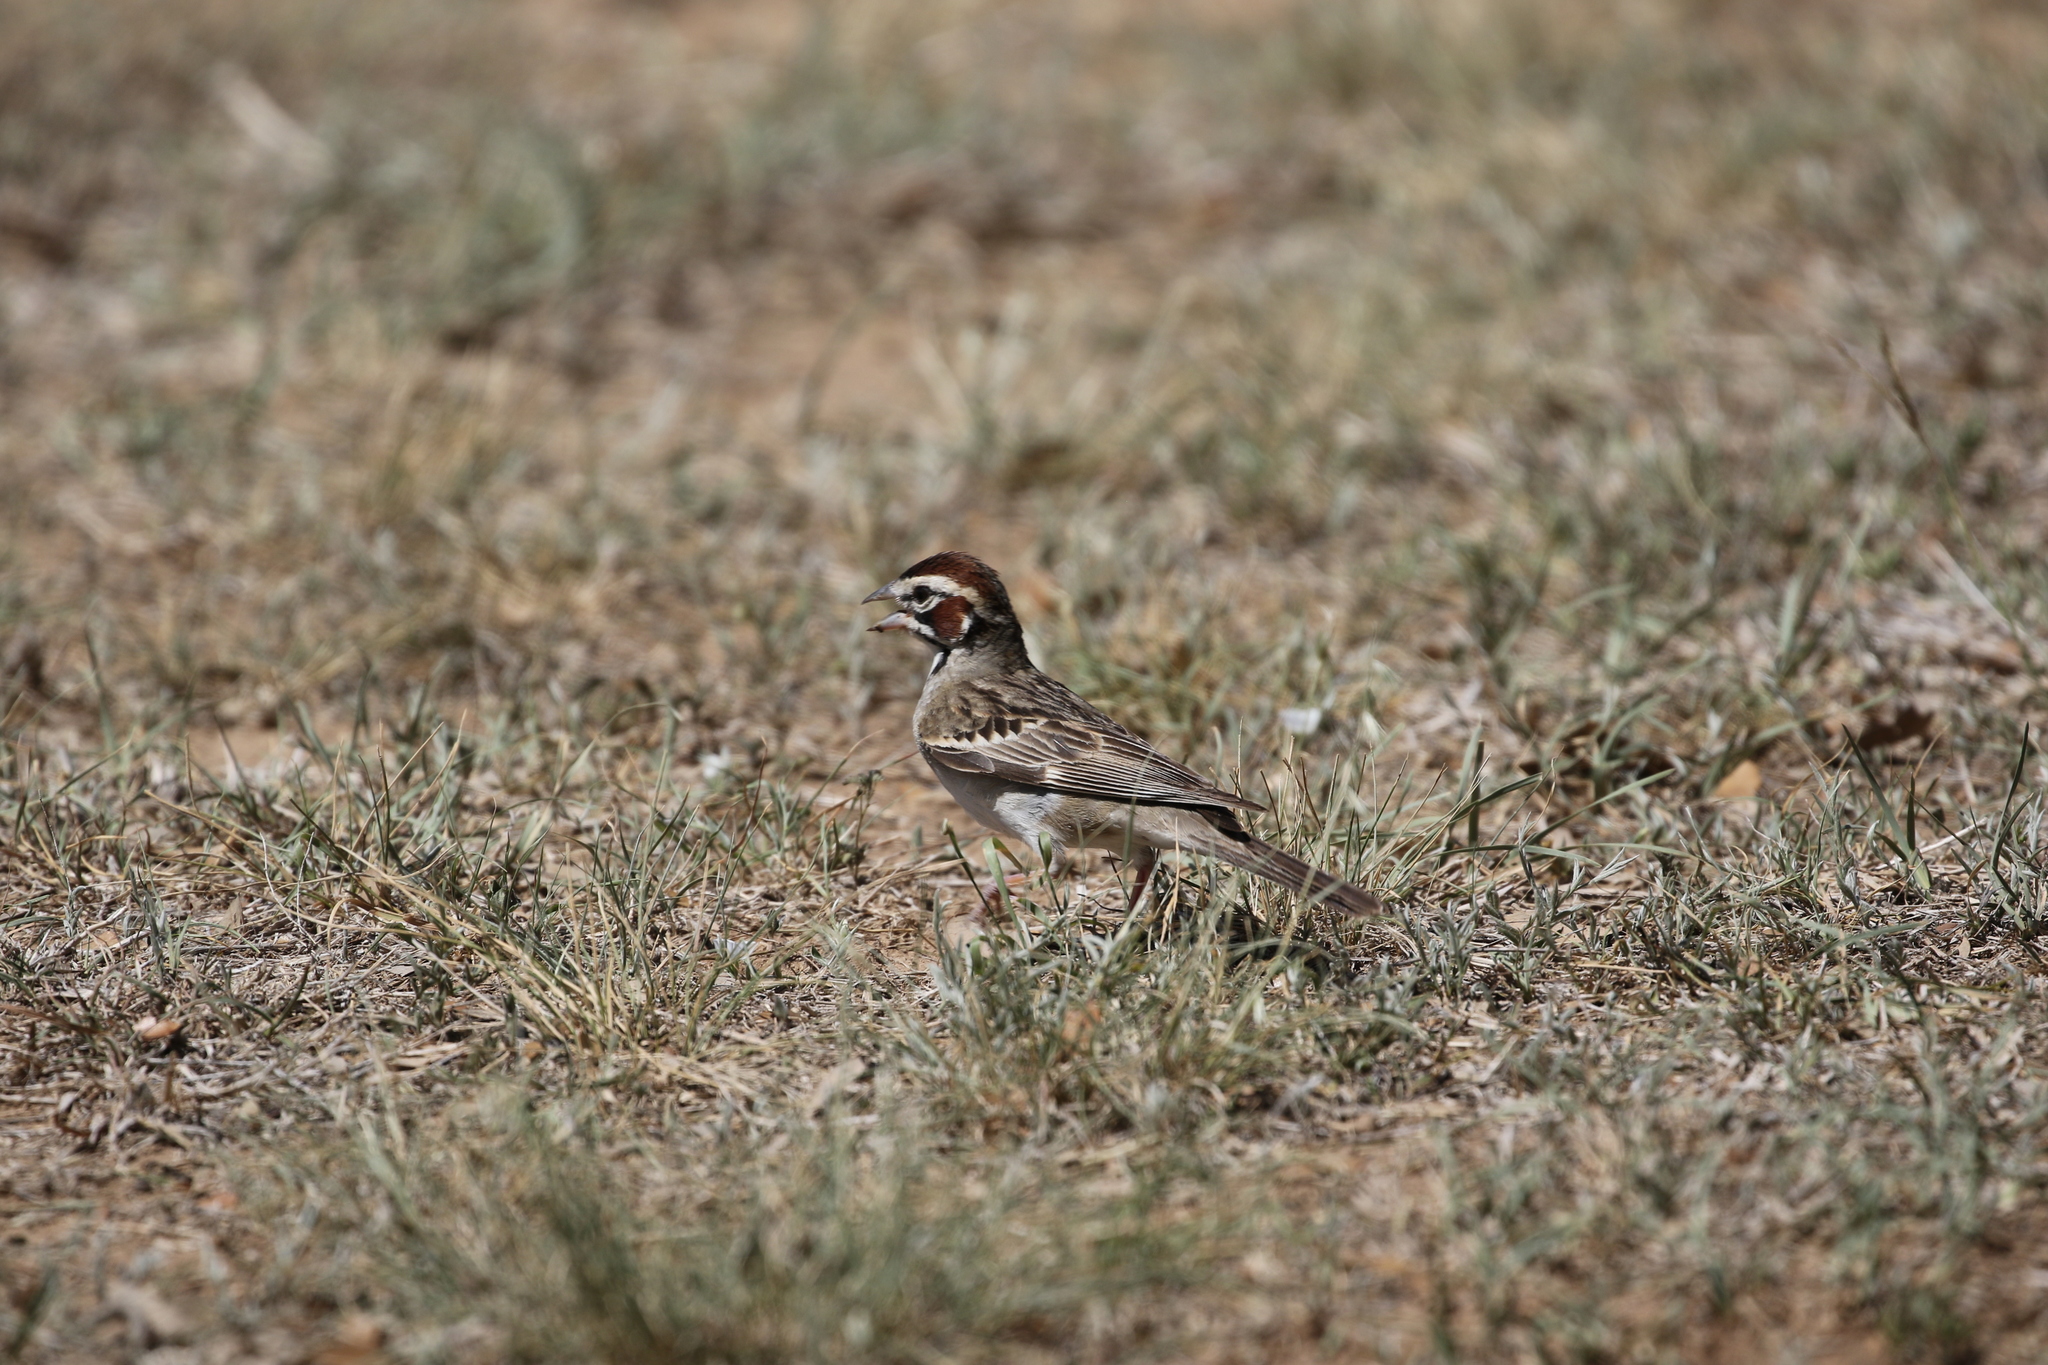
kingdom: Animalia
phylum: Chordata
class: Aves
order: Passeriformes
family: Passerellidae
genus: Chondestes
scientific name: Chondestes grammacus
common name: Lark sparrow
